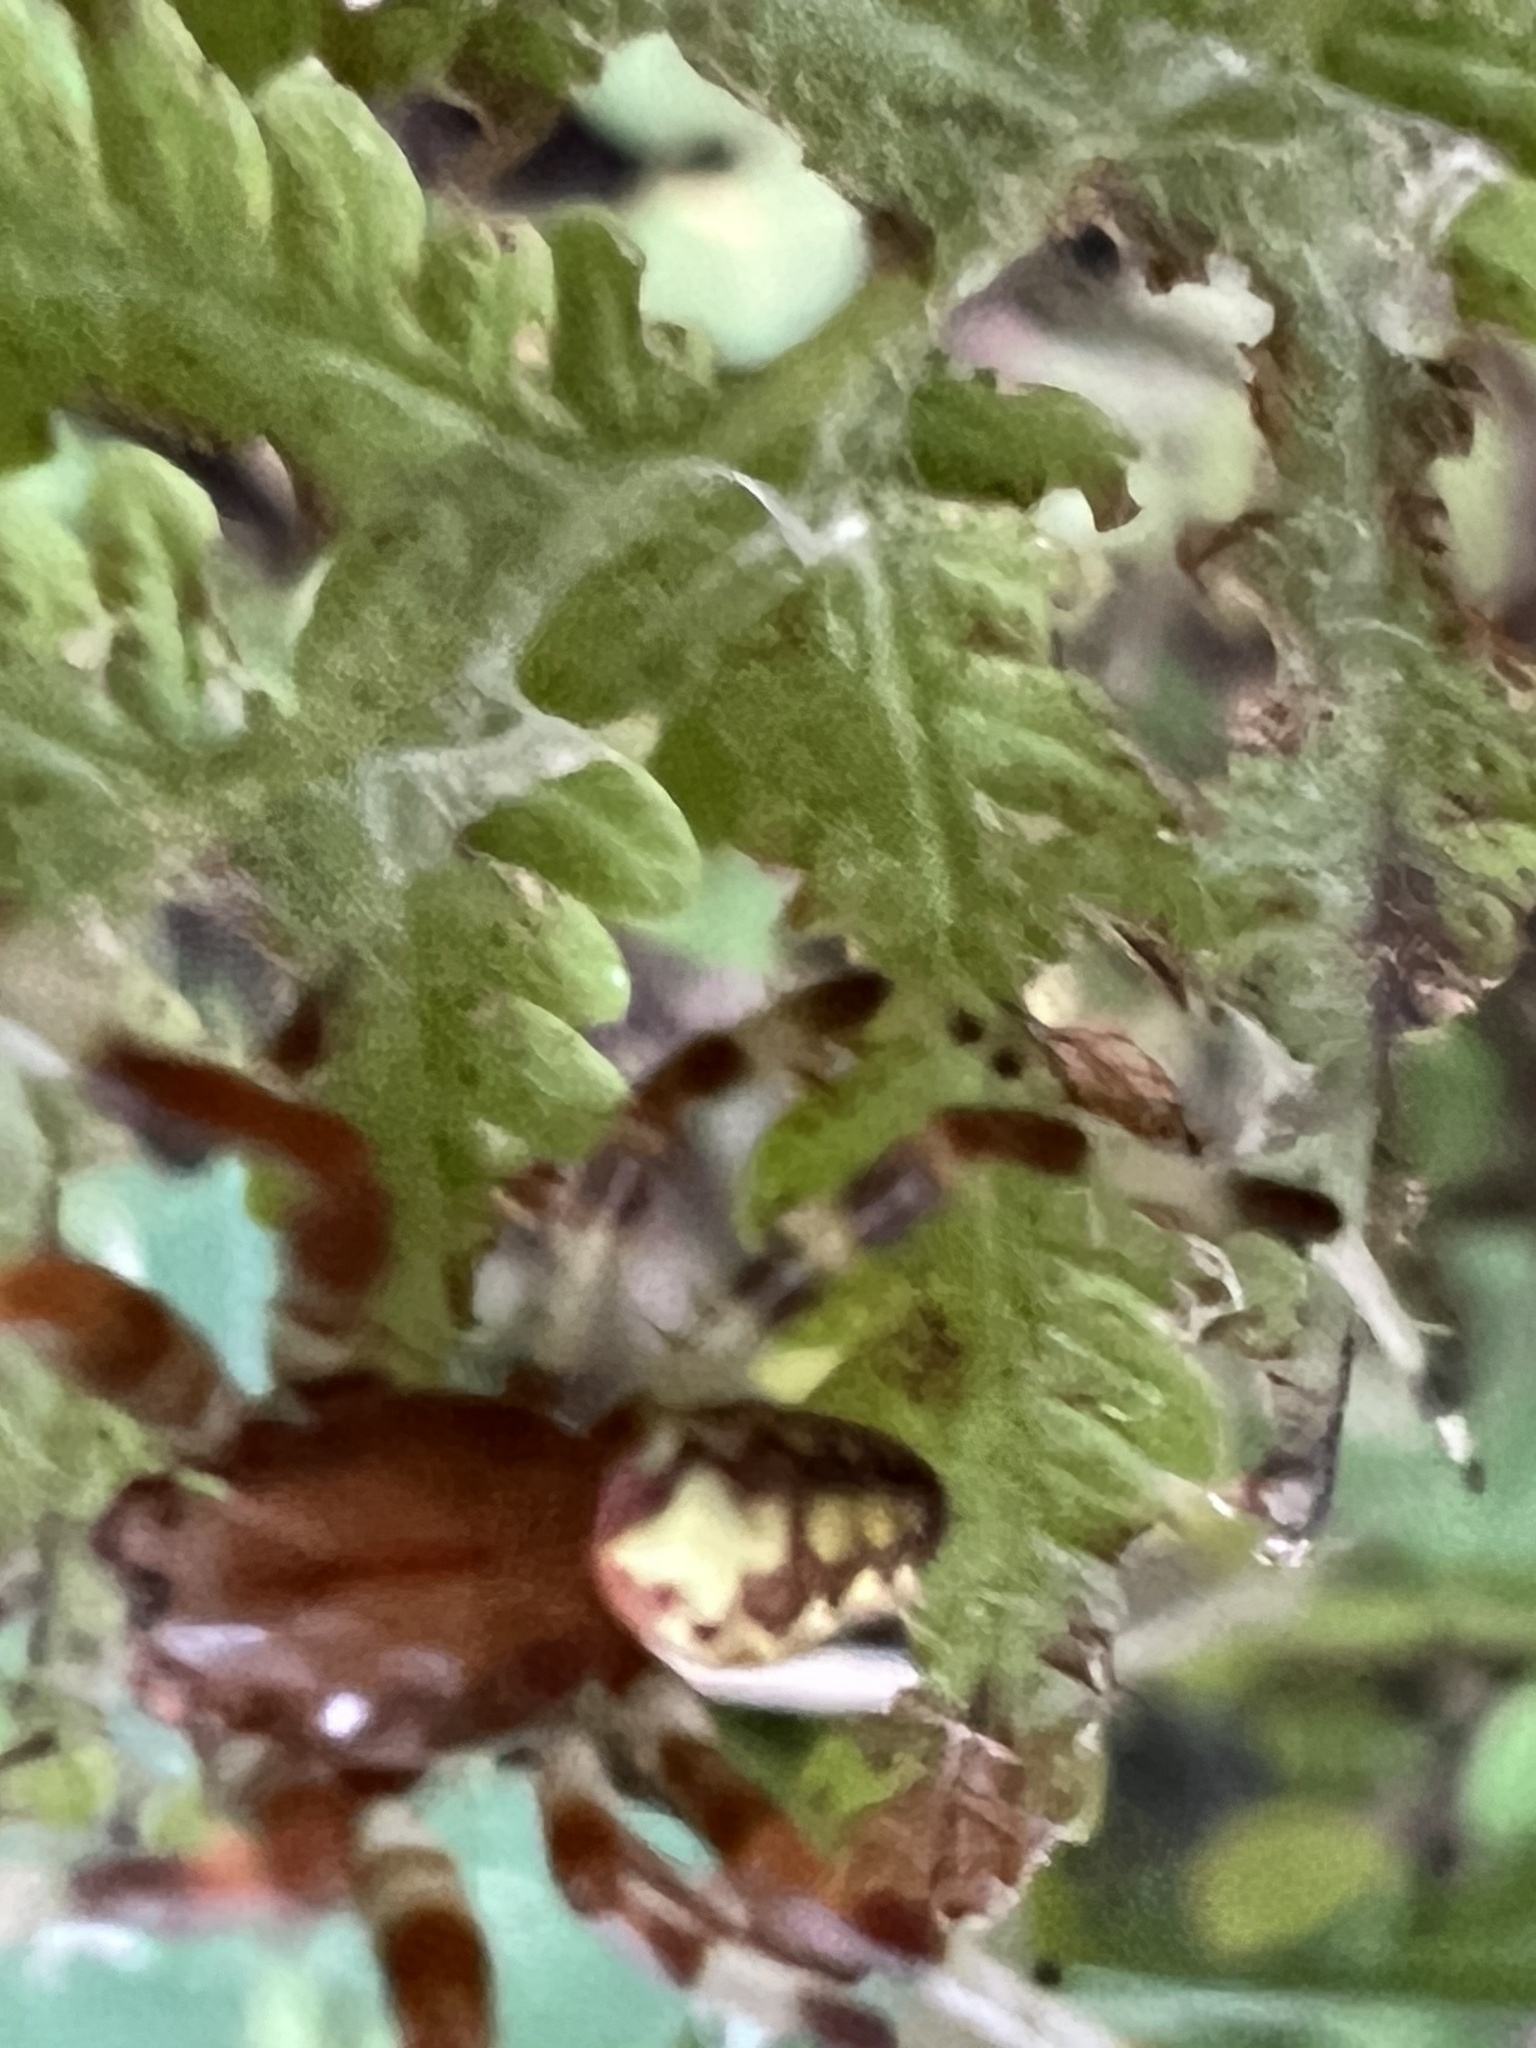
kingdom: Animalia
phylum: Arthropoda
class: Arachnida
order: Araneae
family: Araneidae
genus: Araneus
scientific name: Araneus marmoreus
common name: Marbled orbweaver
